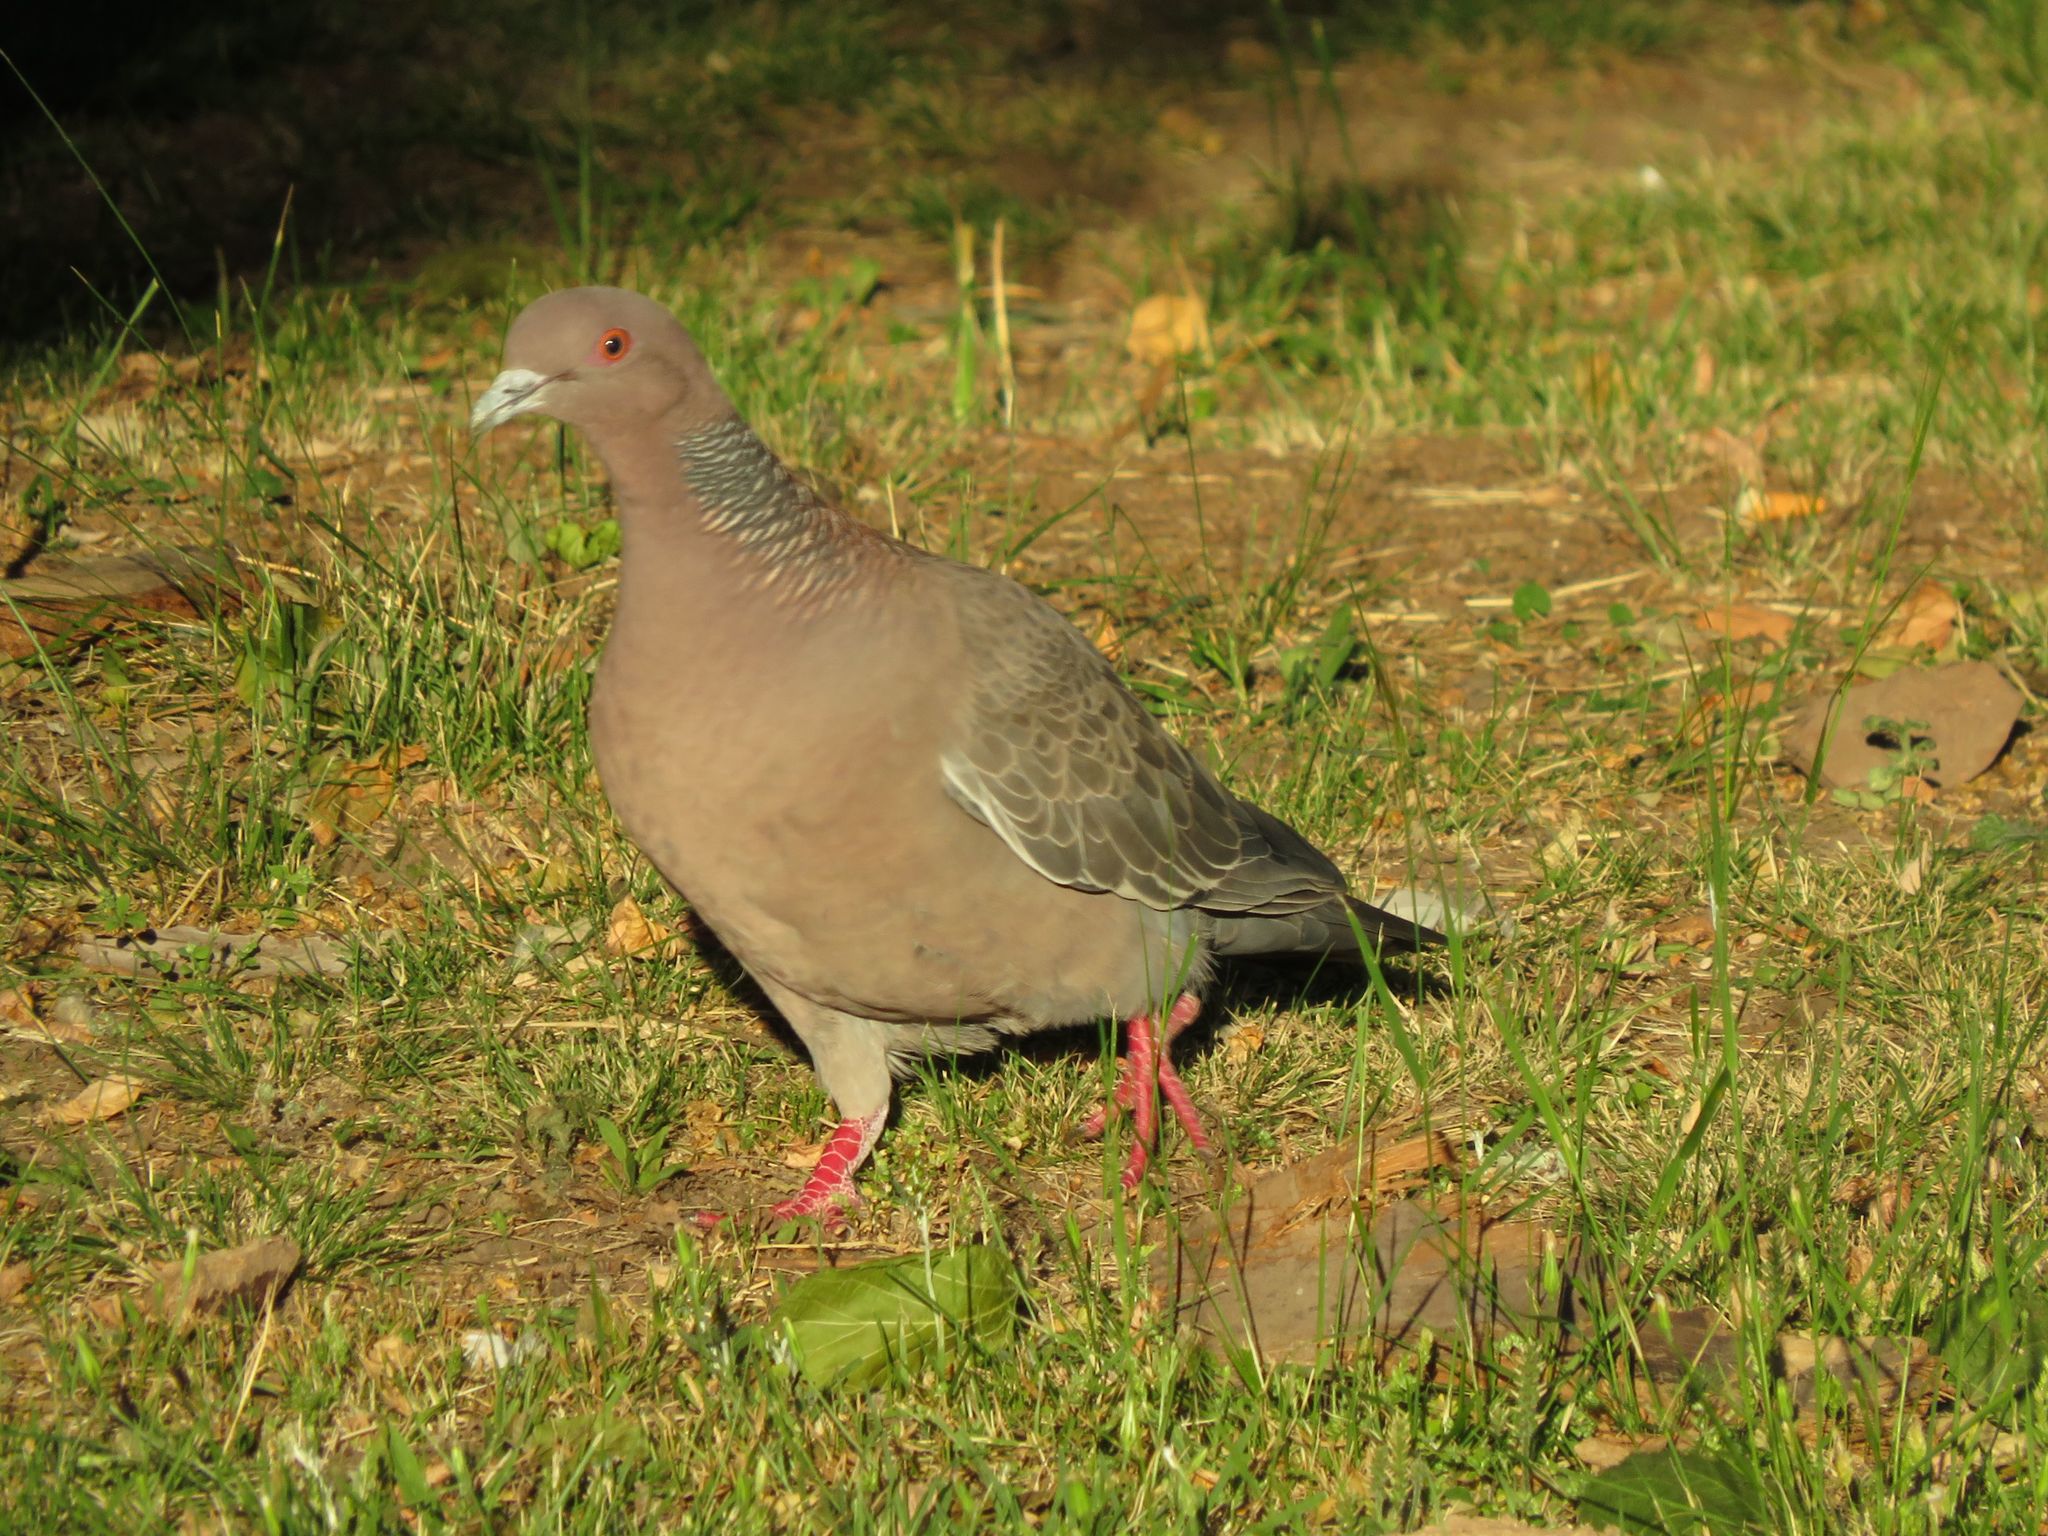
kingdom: Animalia
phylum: Chordata
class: Aves
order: Columbiformes
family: Columbidae
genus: Patagioenas
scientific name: Patagioenas picazuro
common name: Picazuro pigeon
